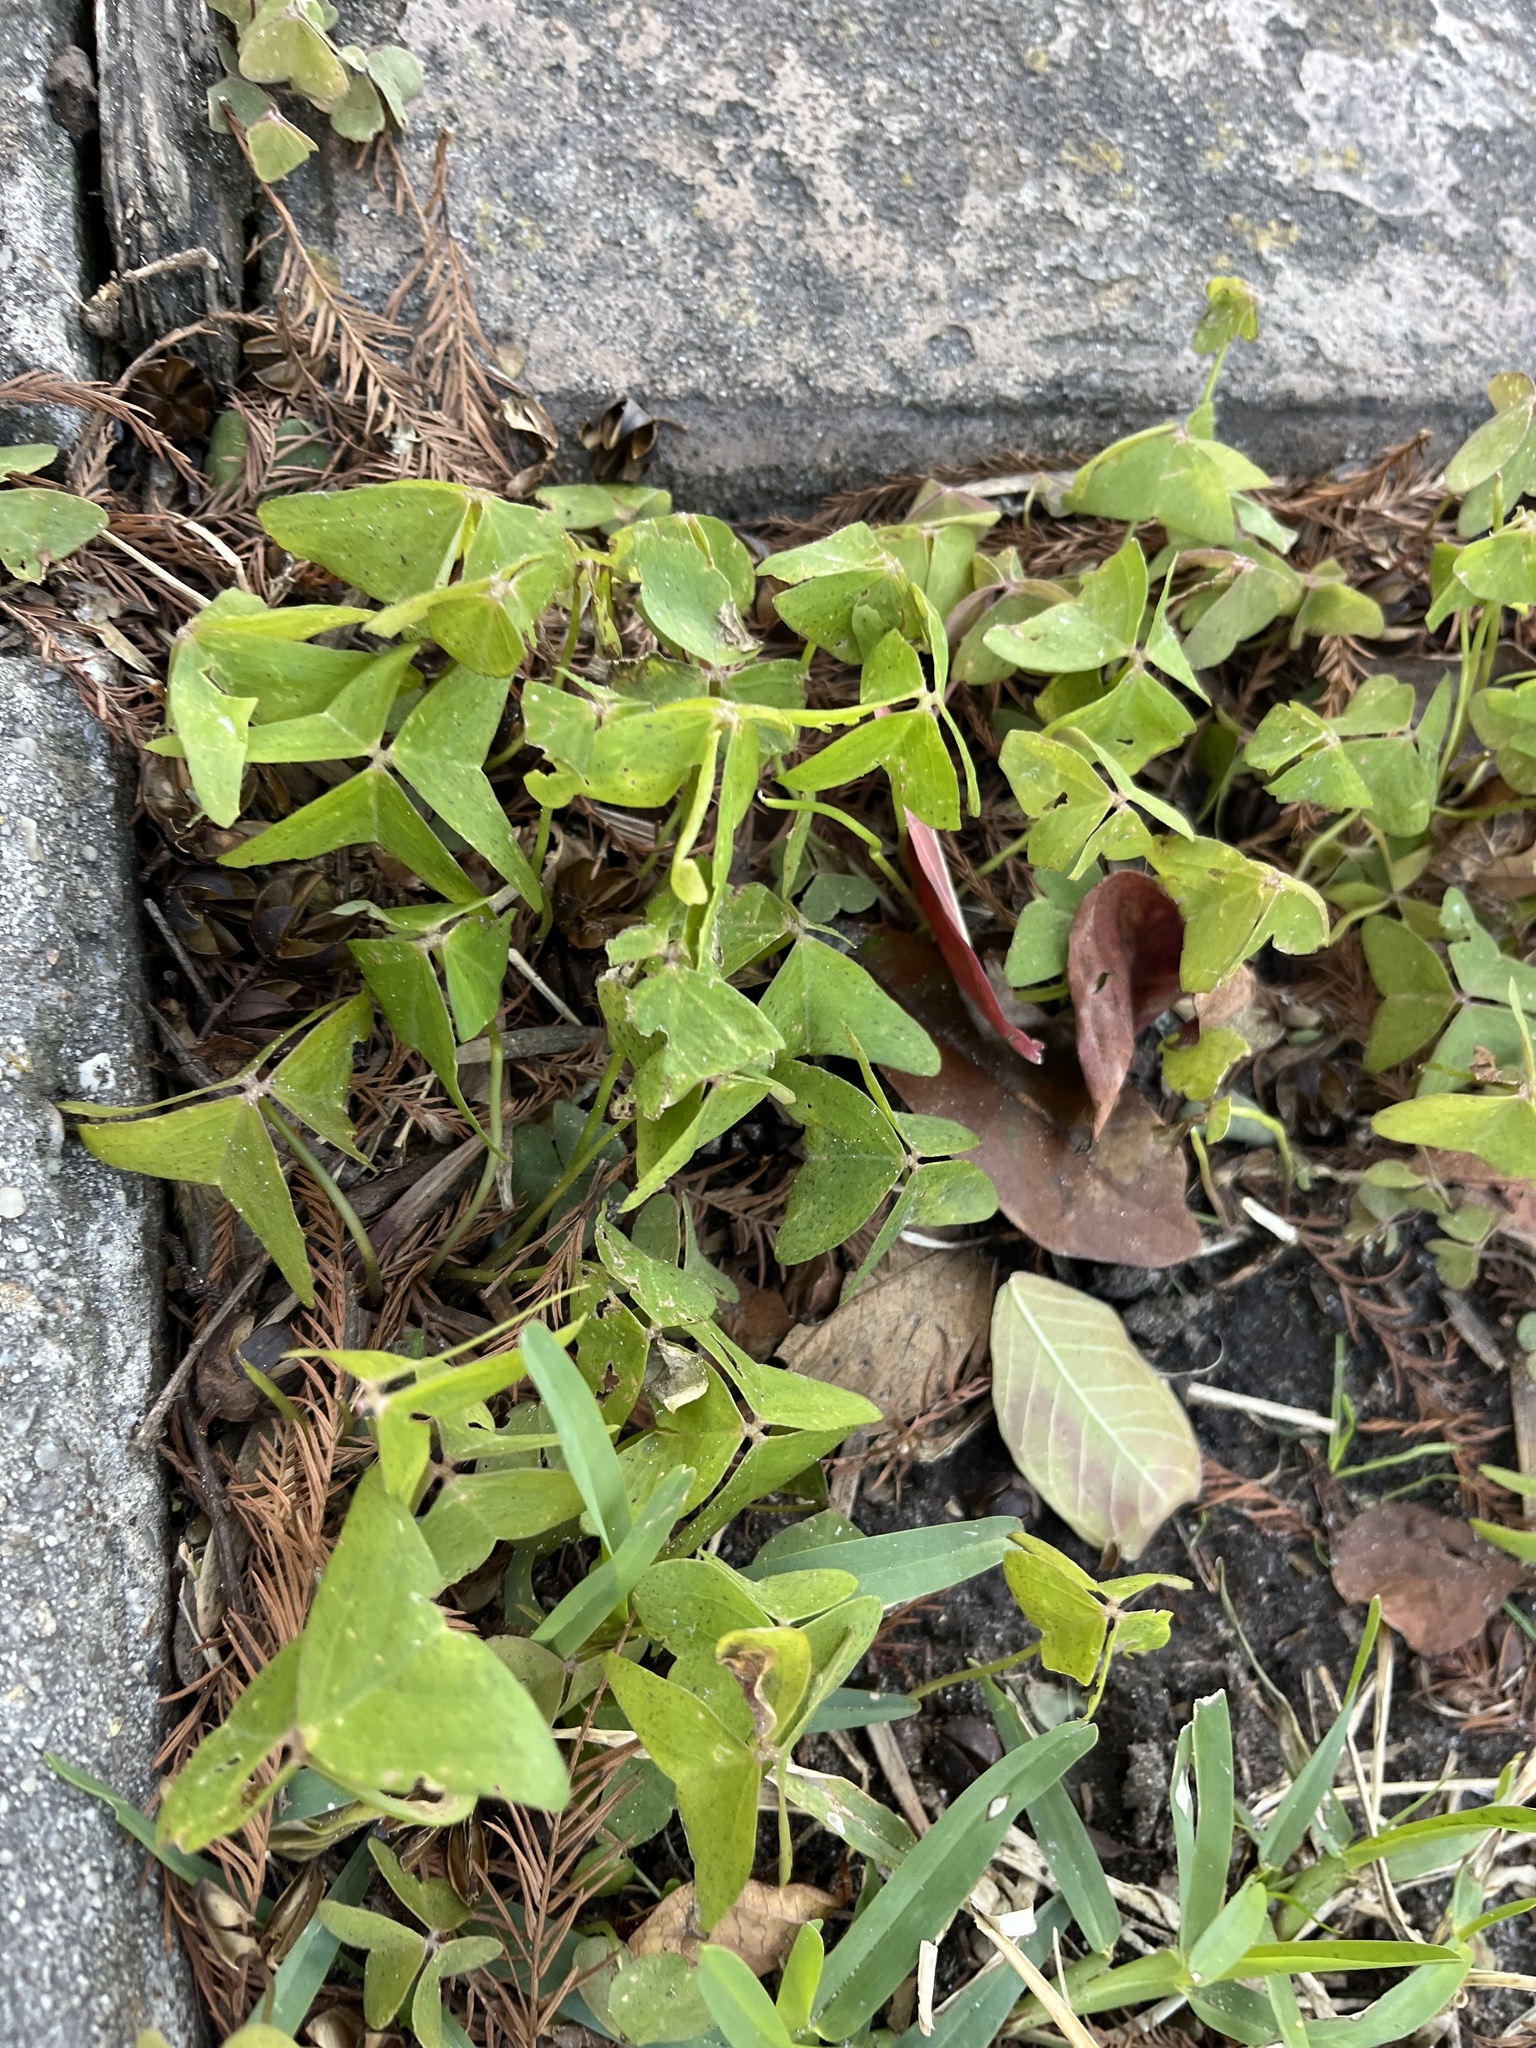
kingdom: Plantae
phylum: Tracheophyta
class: Magnoliopsida
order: Oxalidales
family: Oxalidaceae
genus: Oxalis
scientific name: Oxalis intermedia
